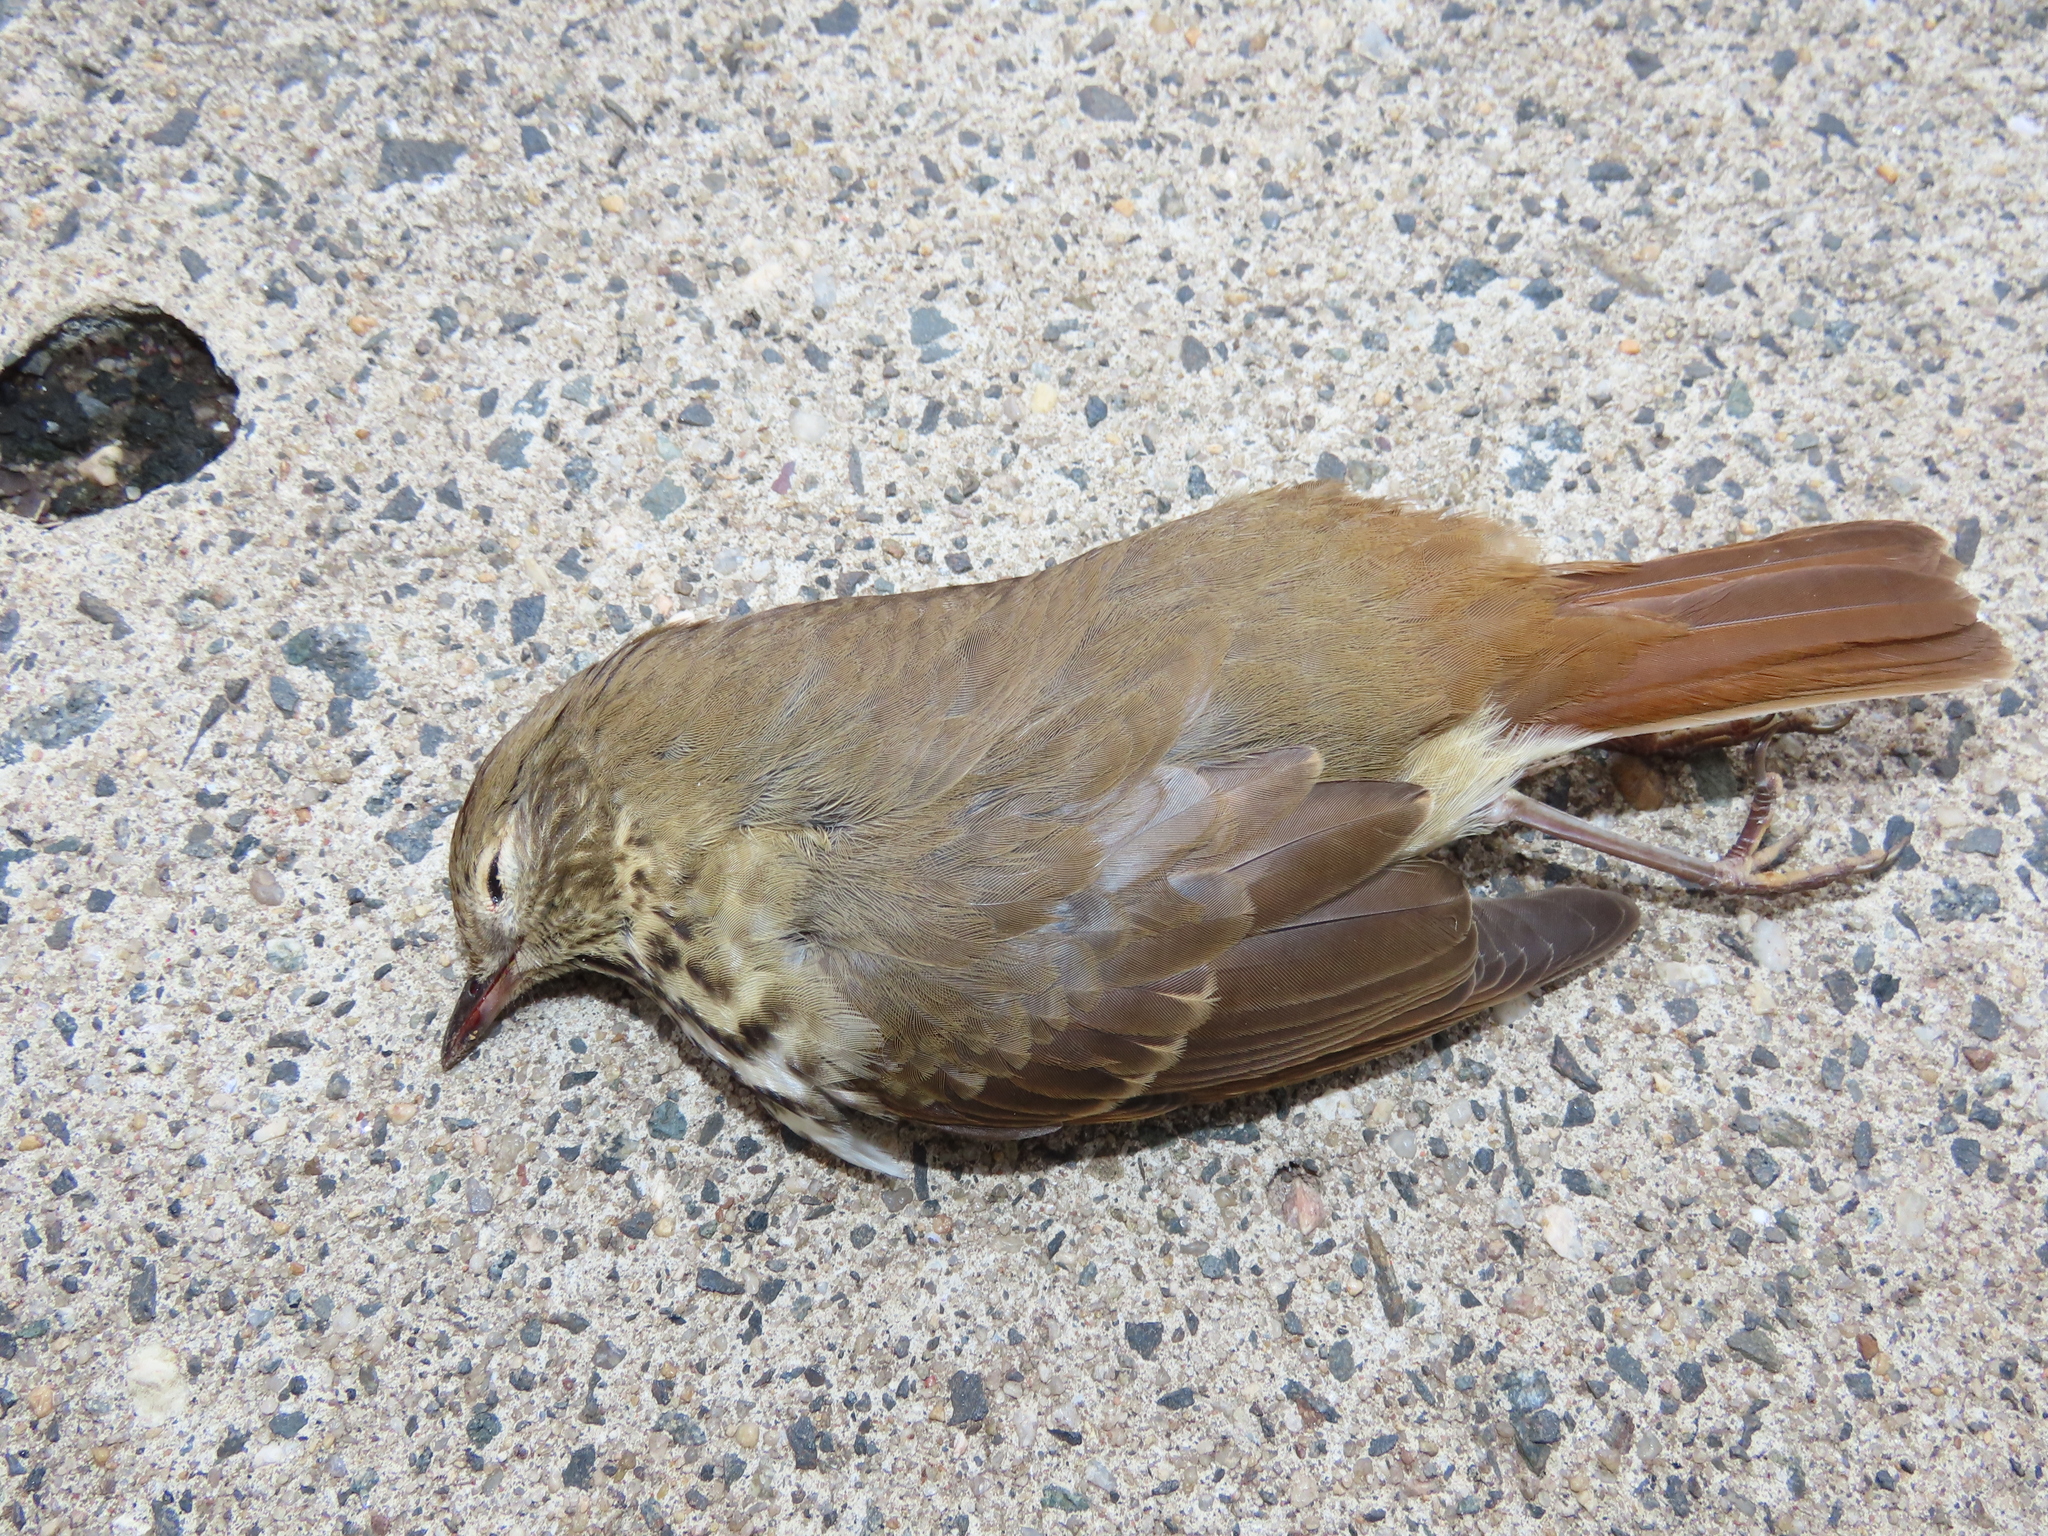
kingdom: Animalia
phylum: Chordata
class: Aves
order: Passeriformes
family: Turdidae
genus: Catharus
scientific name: Catharus guttatus
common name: Hermit thrush
